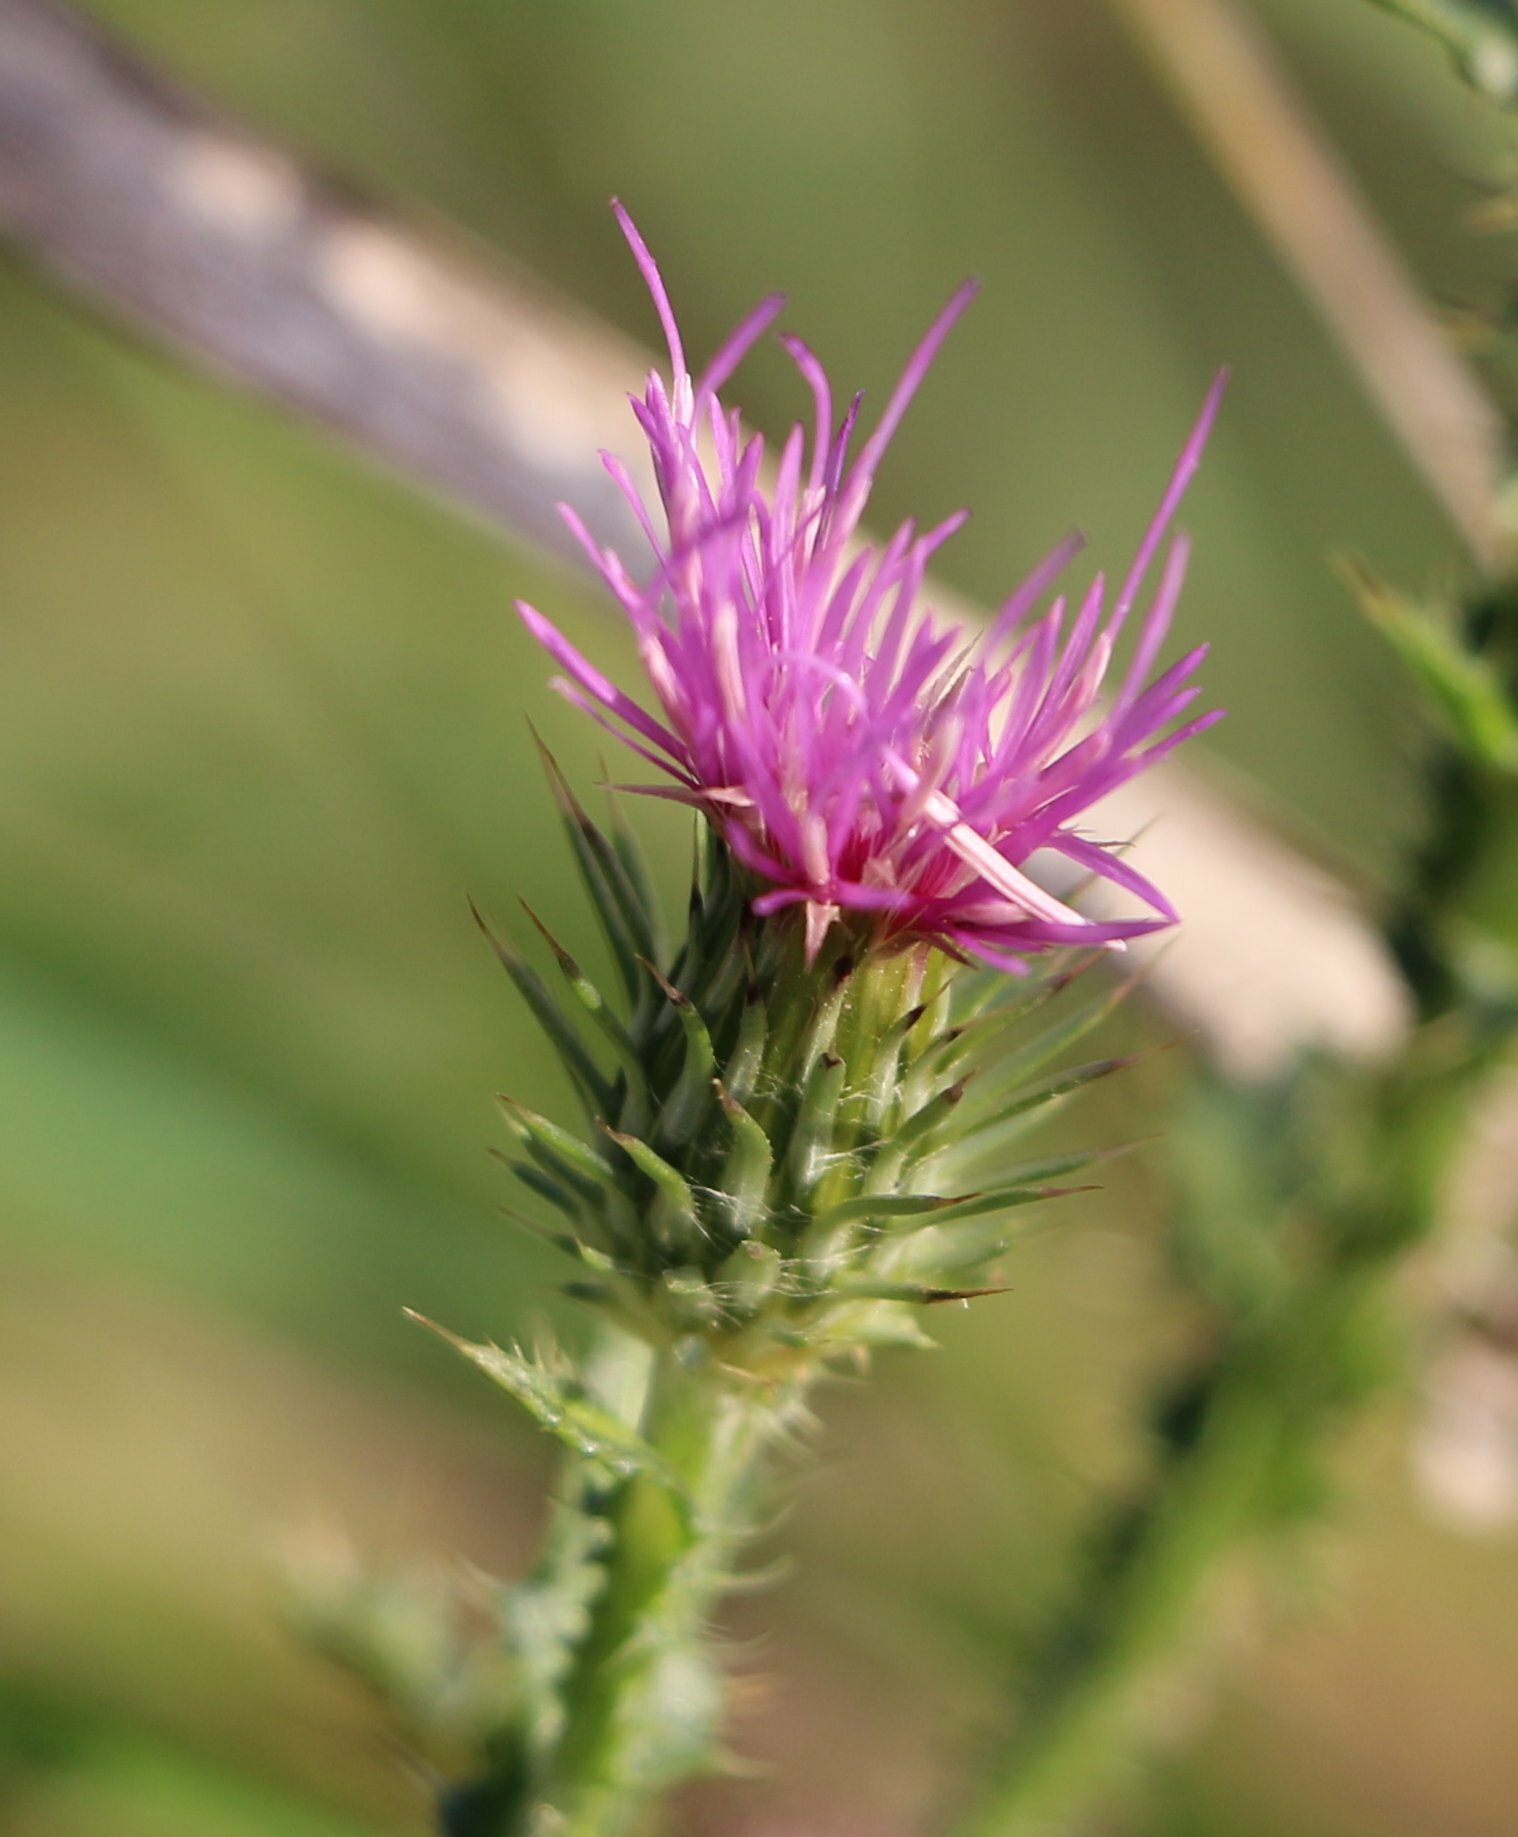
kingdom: Plantae
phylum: Tracheophyta
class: Magnoliopsida
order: Asterales
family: Asteraceae
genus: Carduus
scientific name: Carduus acanthoides
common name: Plumeless thistle
